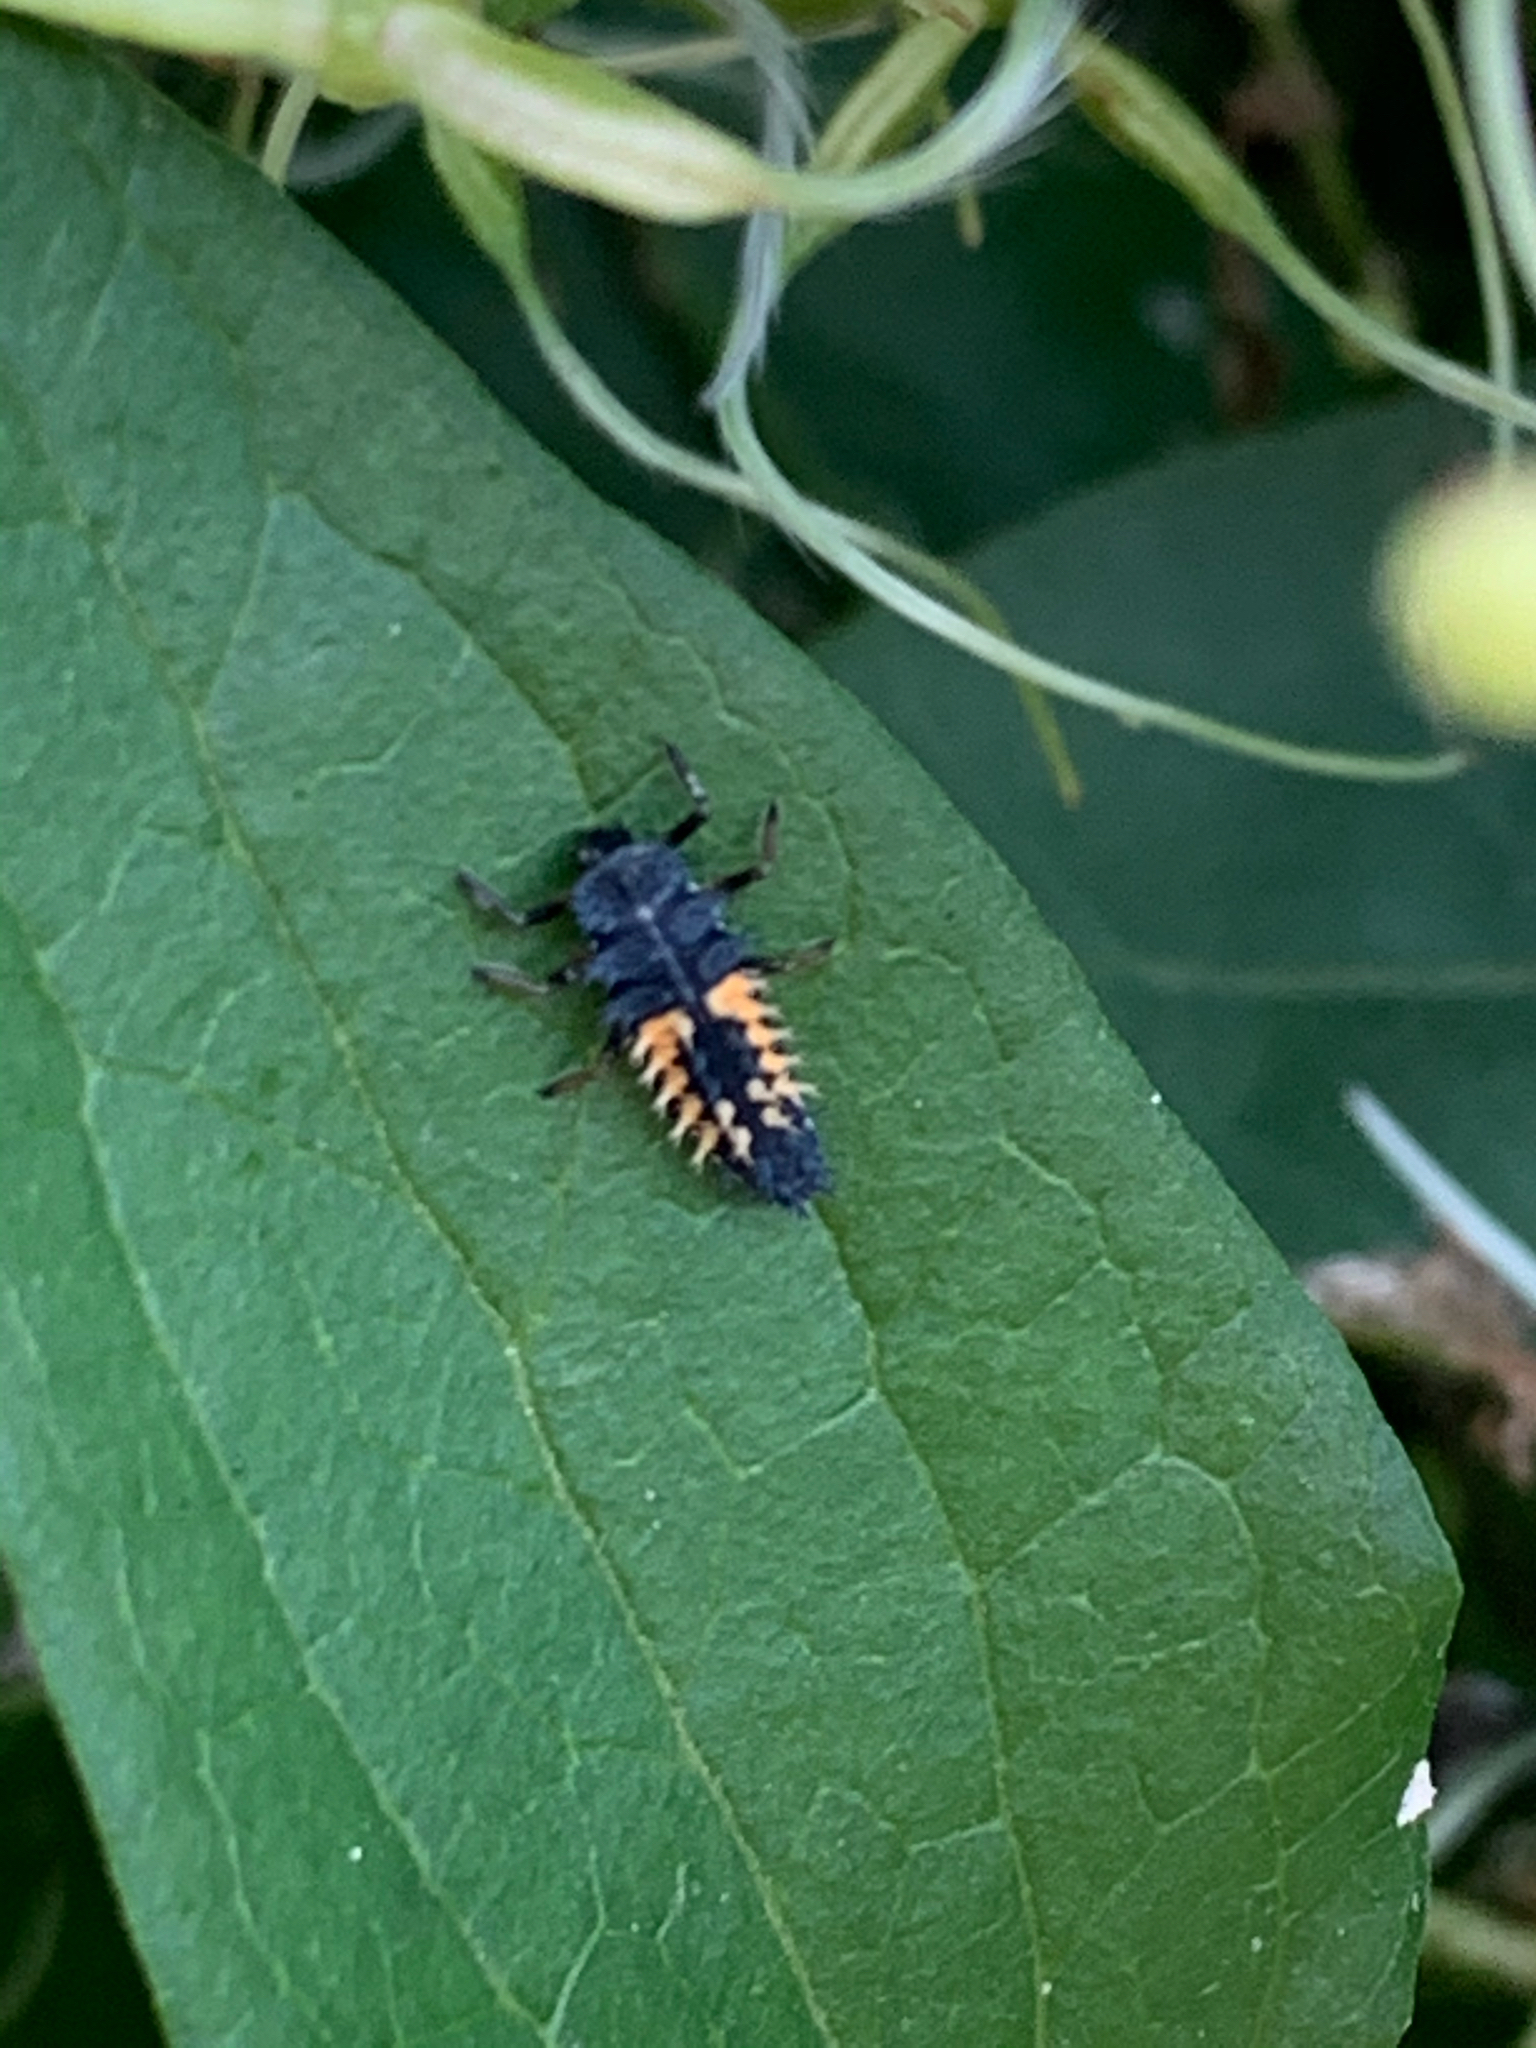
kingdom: Animalia
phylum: Arthropoda
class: Insecta
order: Coleoptera
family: Coccinellidae
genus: Harmonia
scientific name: Harmonia axyridis
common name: Harlequin ladybird
